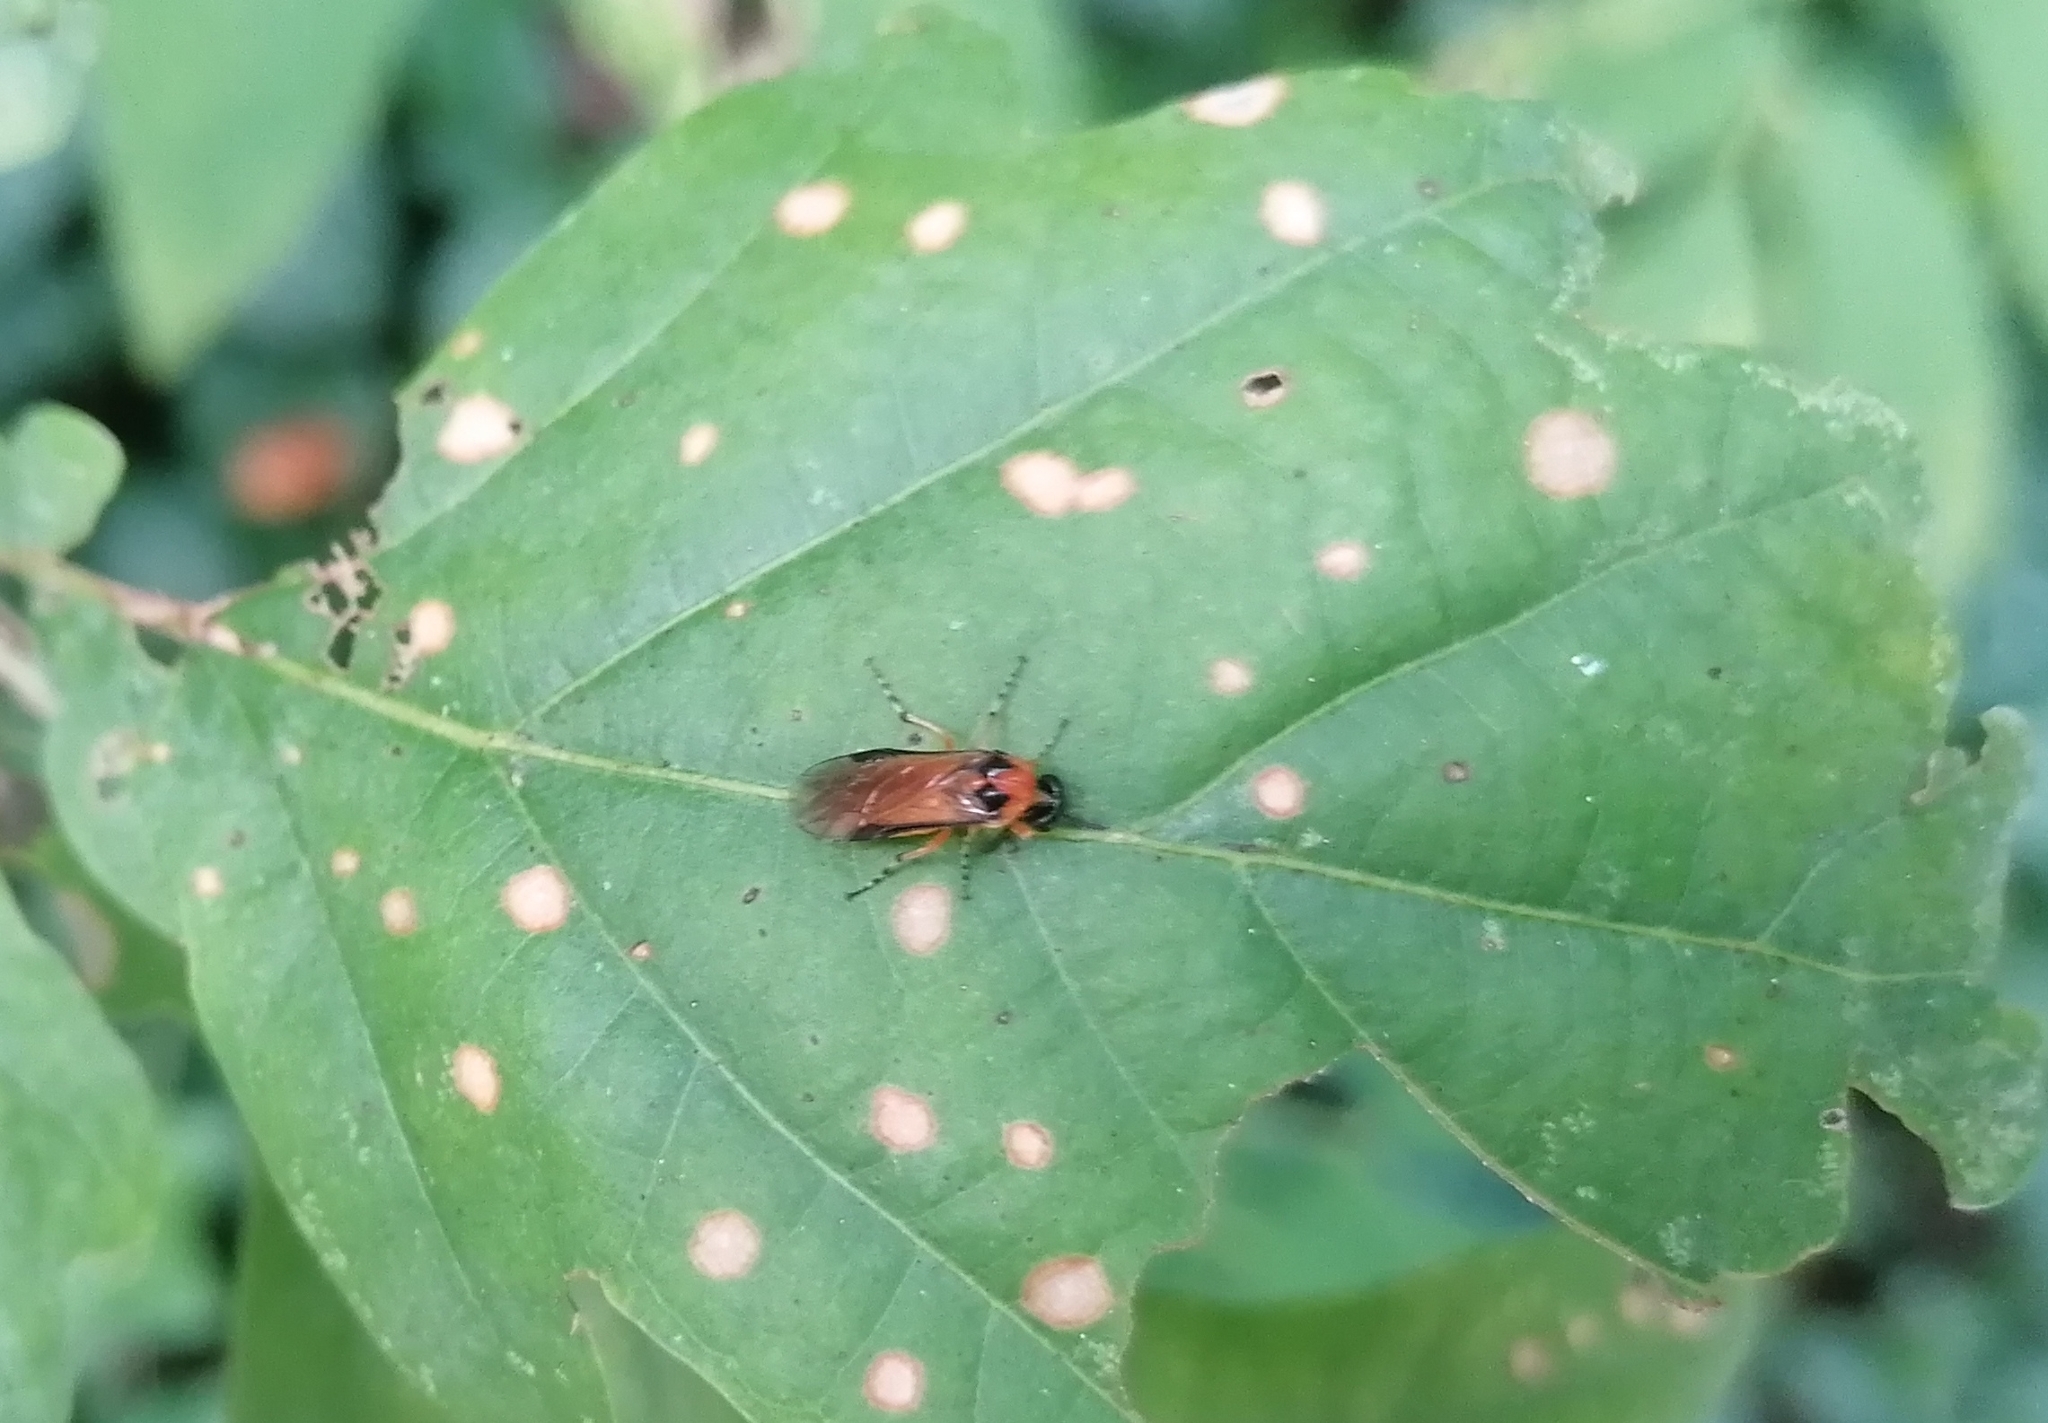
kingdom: Animalia
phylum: Arthropoda
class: Insecta
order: Hymenoptera
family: Tenthredinidae
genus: Athalia
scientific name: Athalia rosae
